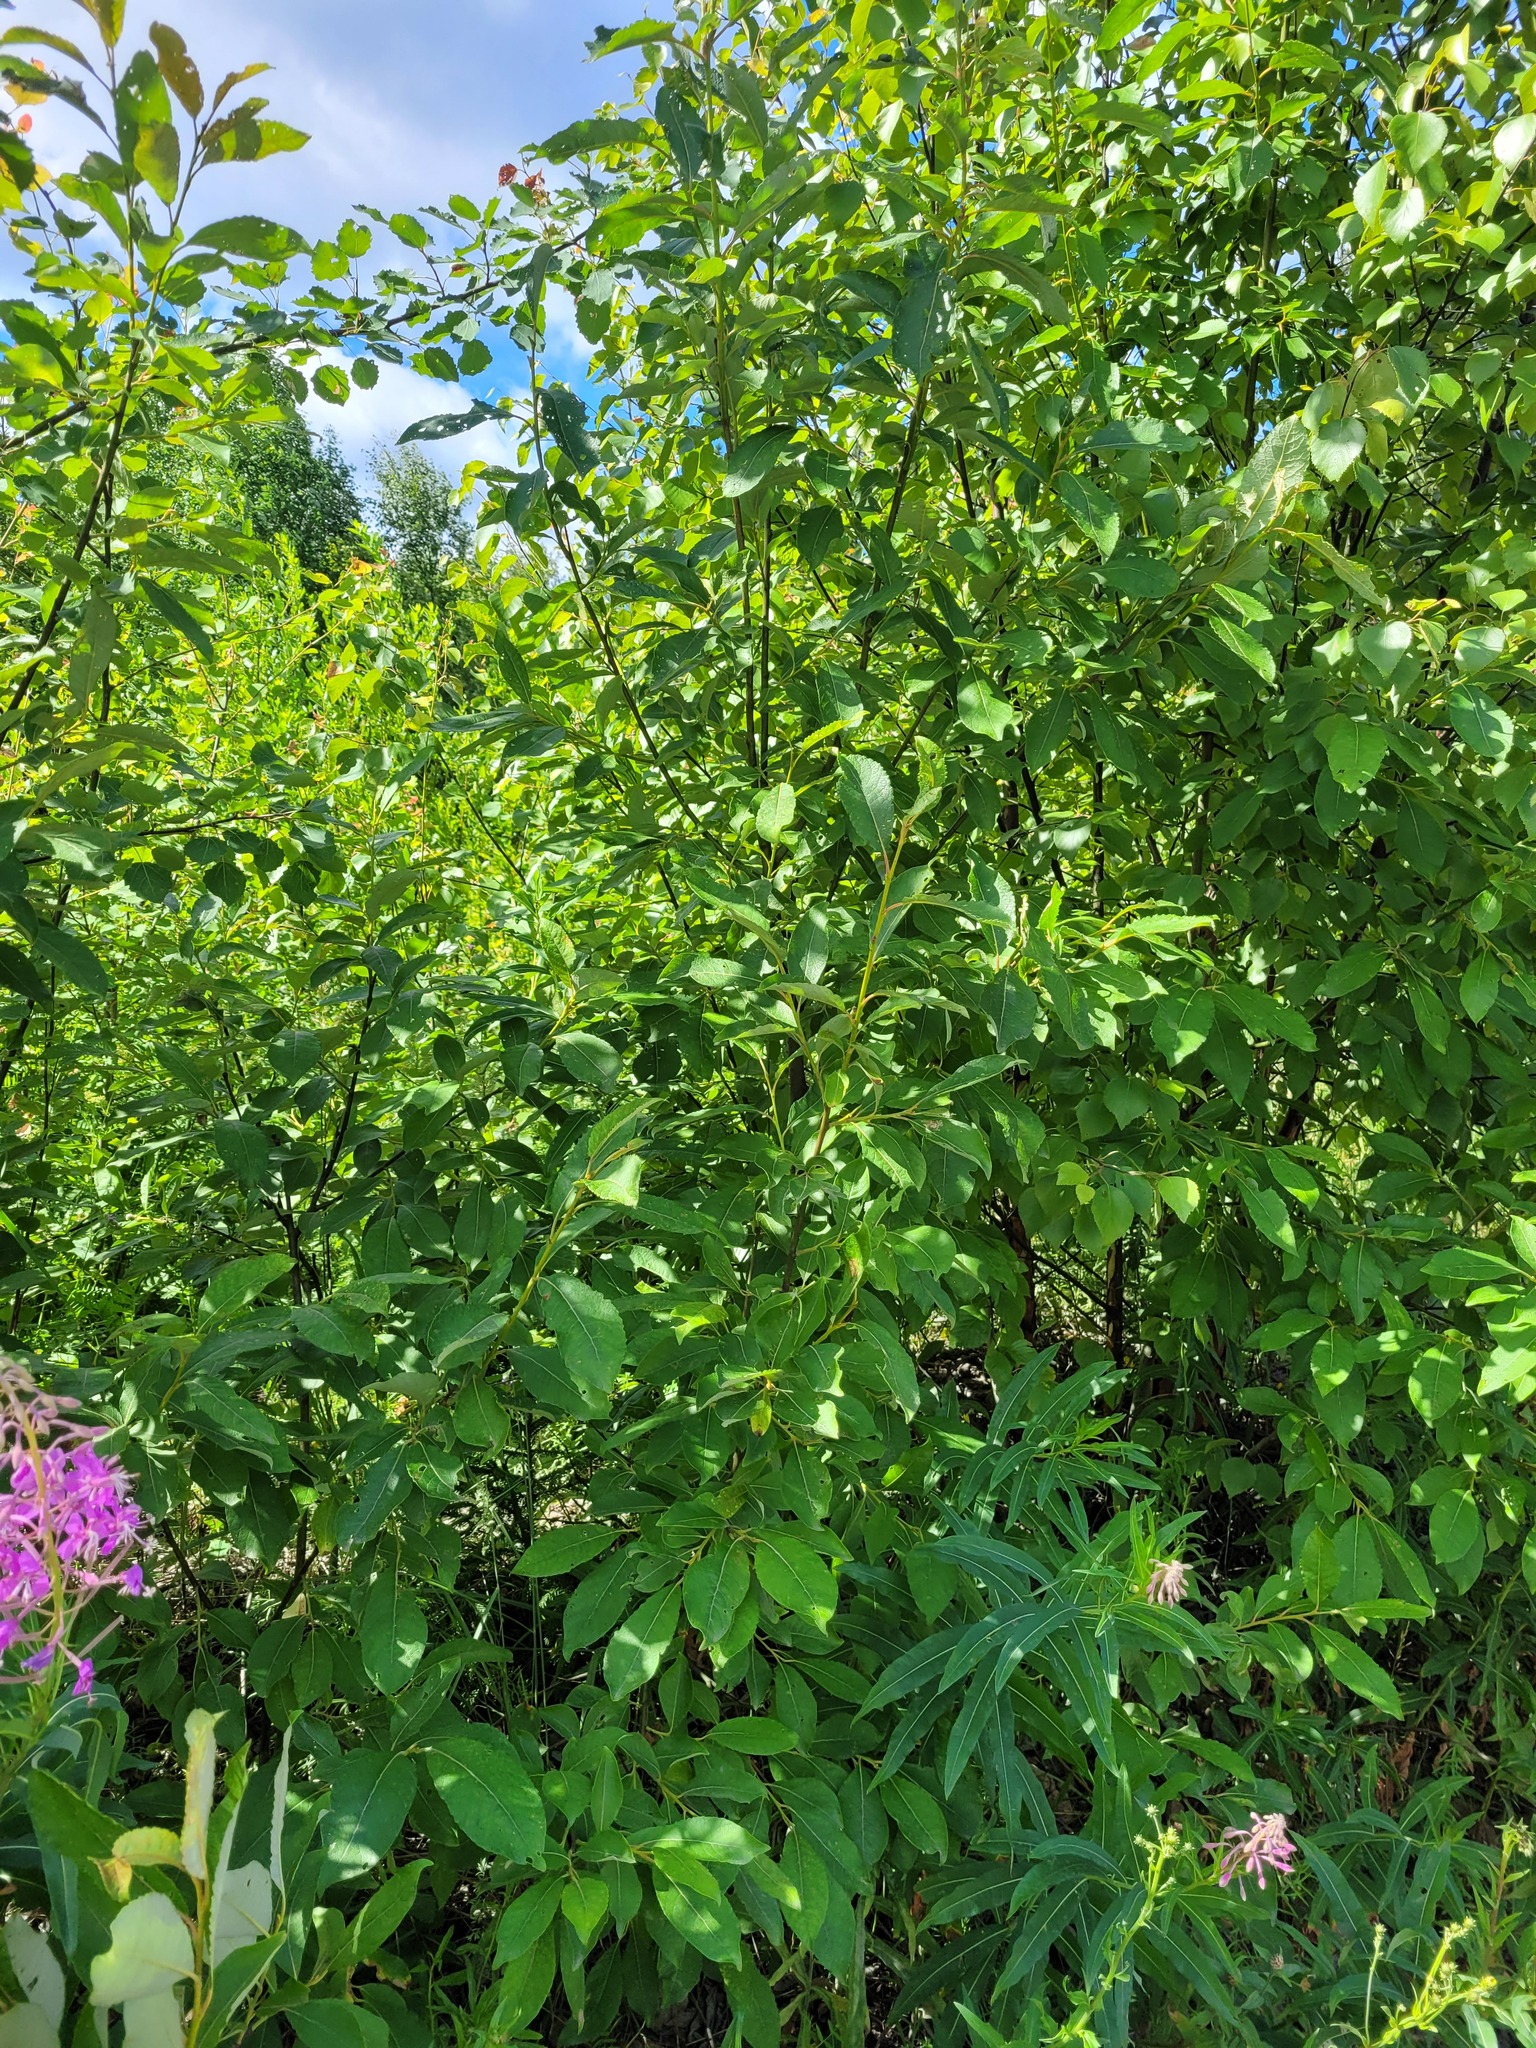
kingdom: Plantae
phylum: Tracheophyta
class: Magnoliopsida
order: Malpighiales
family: Salicaceae
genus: Salix
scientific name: Salix caprea
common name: Goat willow
